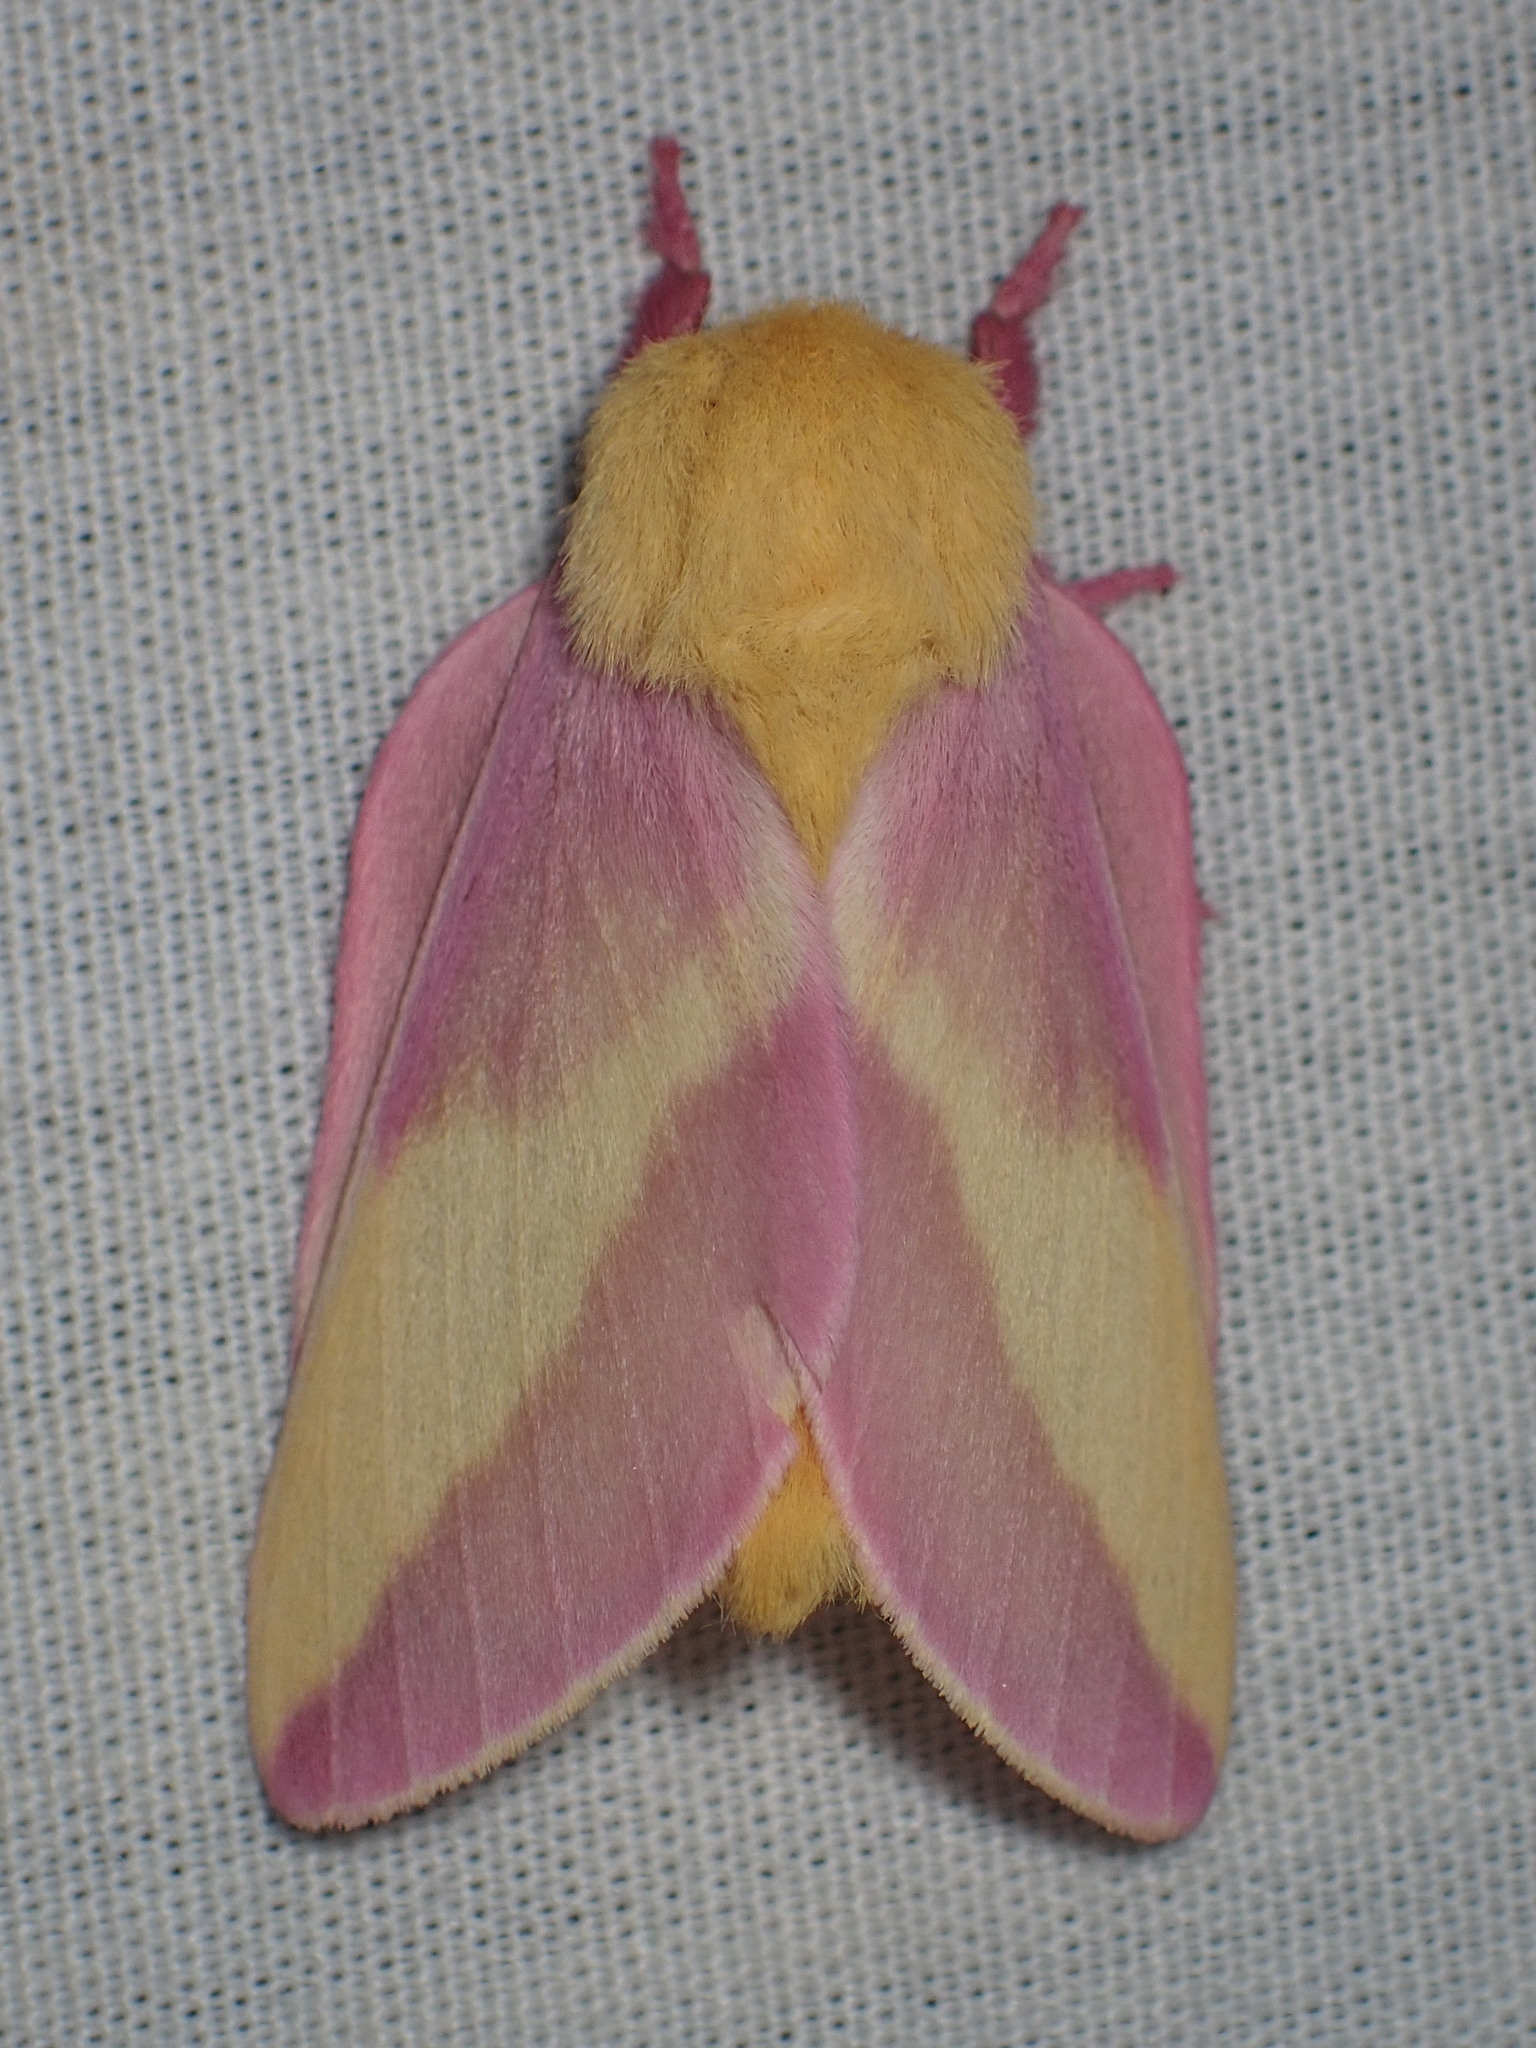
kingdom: Animalia
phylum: Arthropoda
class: Insecta
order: Lepidoptera
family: Saturniidae
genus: Dryocampa
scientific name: Dryocampa rubicunda
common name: Rosy maple moth
